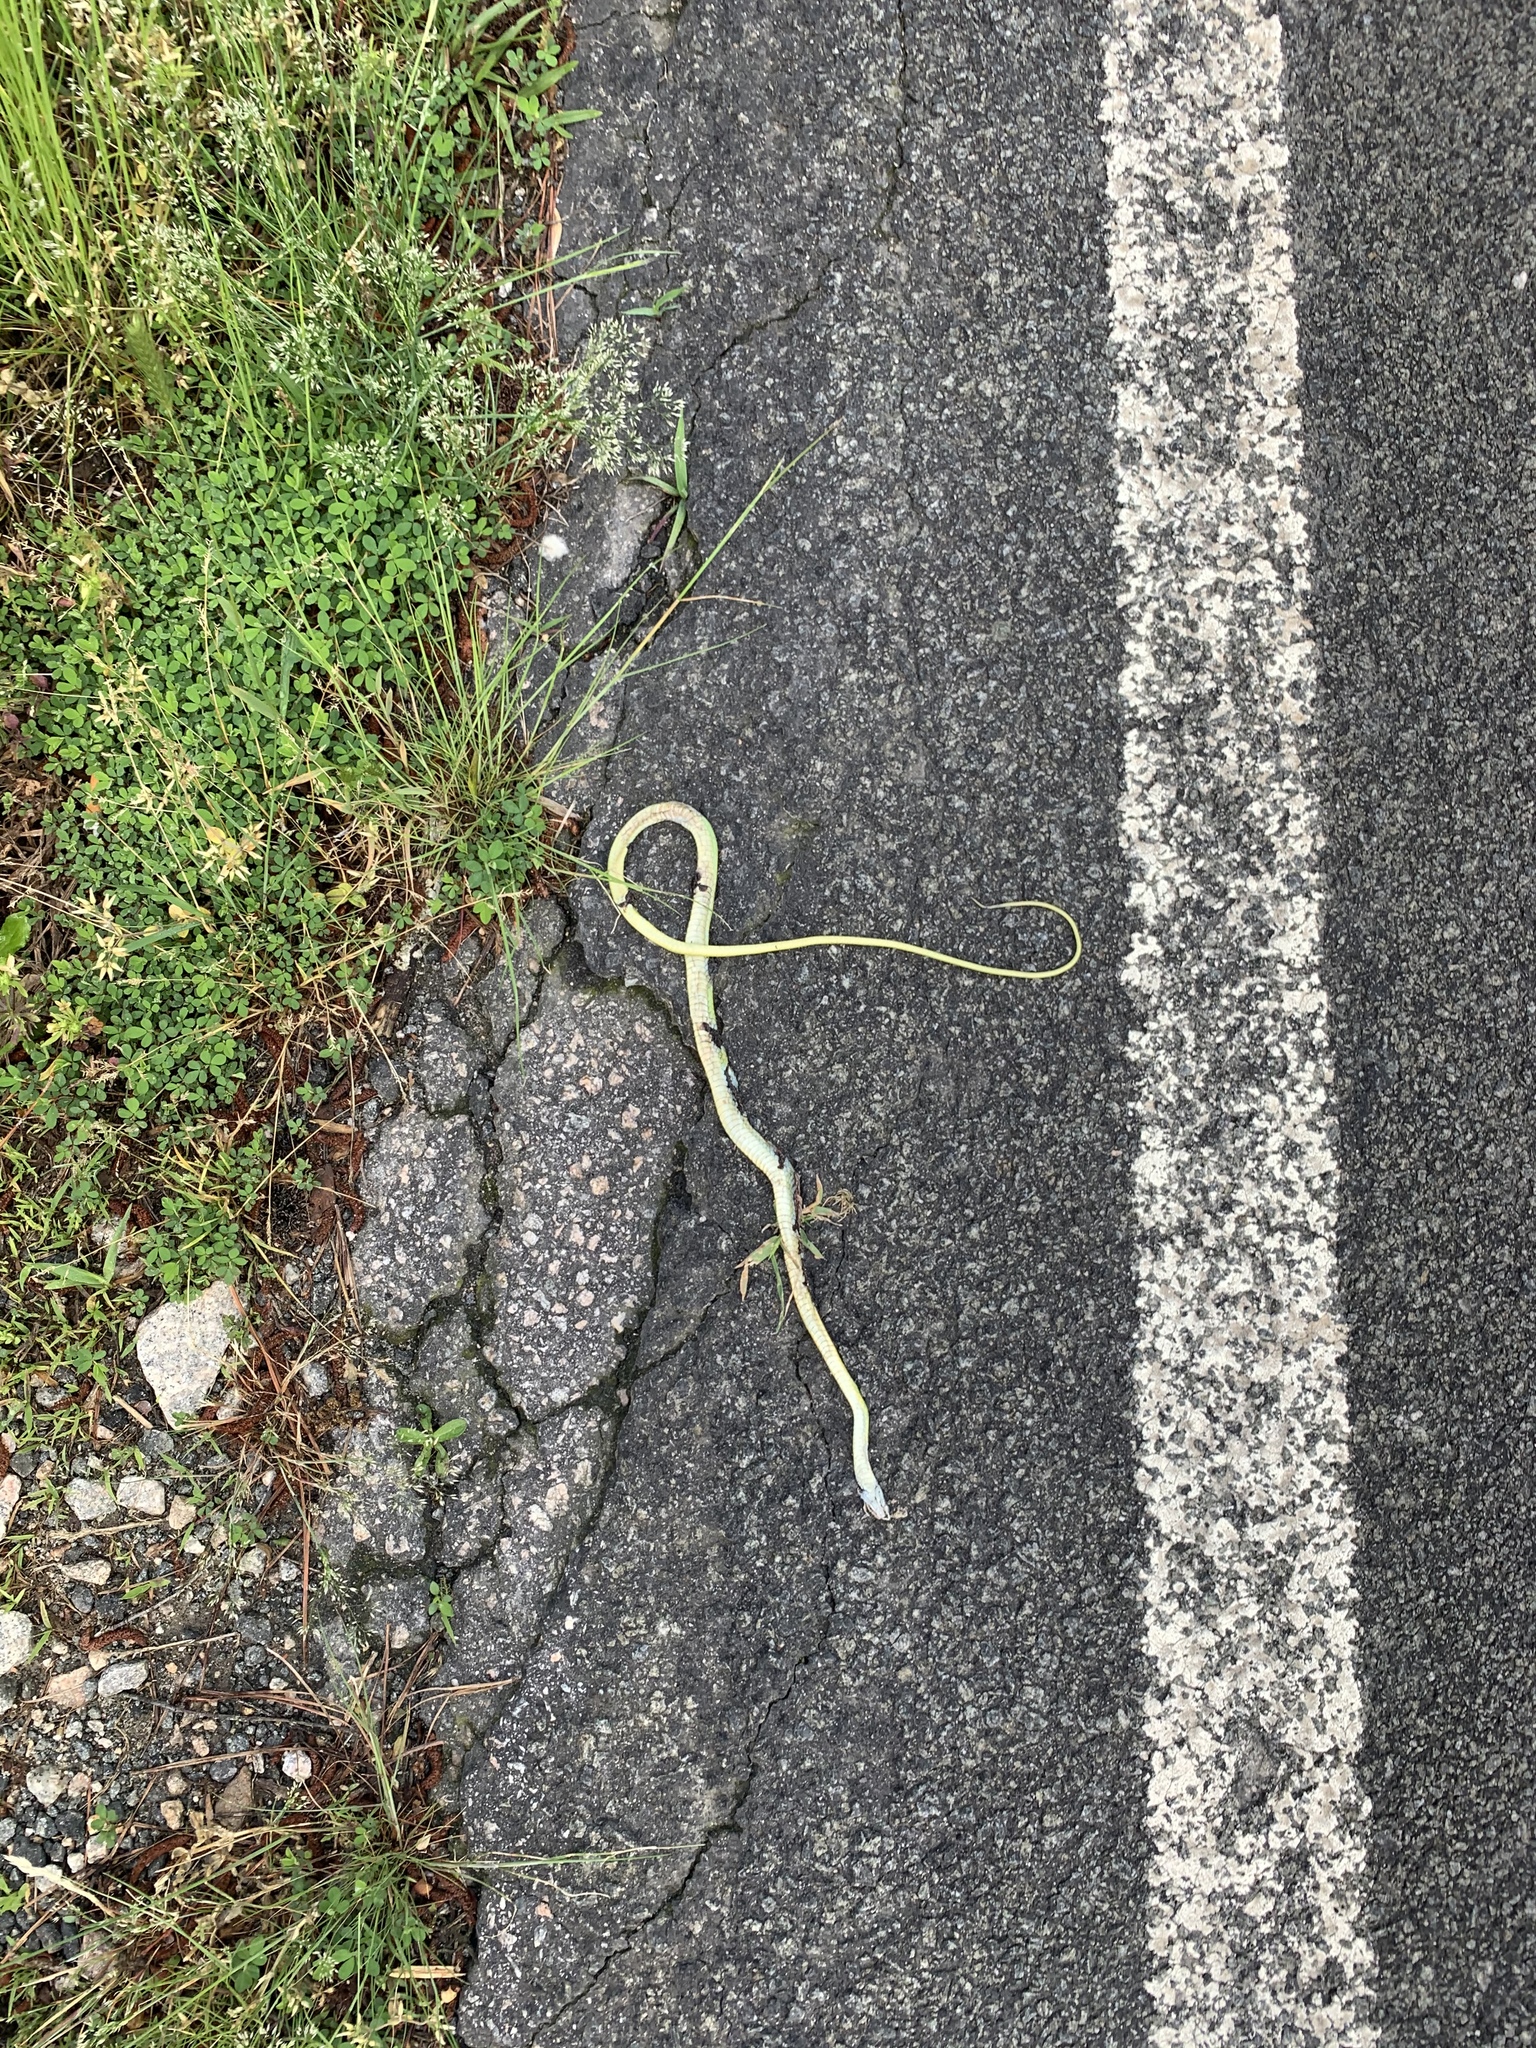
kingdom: Animalia
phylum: Chordata
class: Squamata
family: Colubridae
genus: Opheodrys
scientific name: Opheodrys aestivus
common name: Rough greensnake
